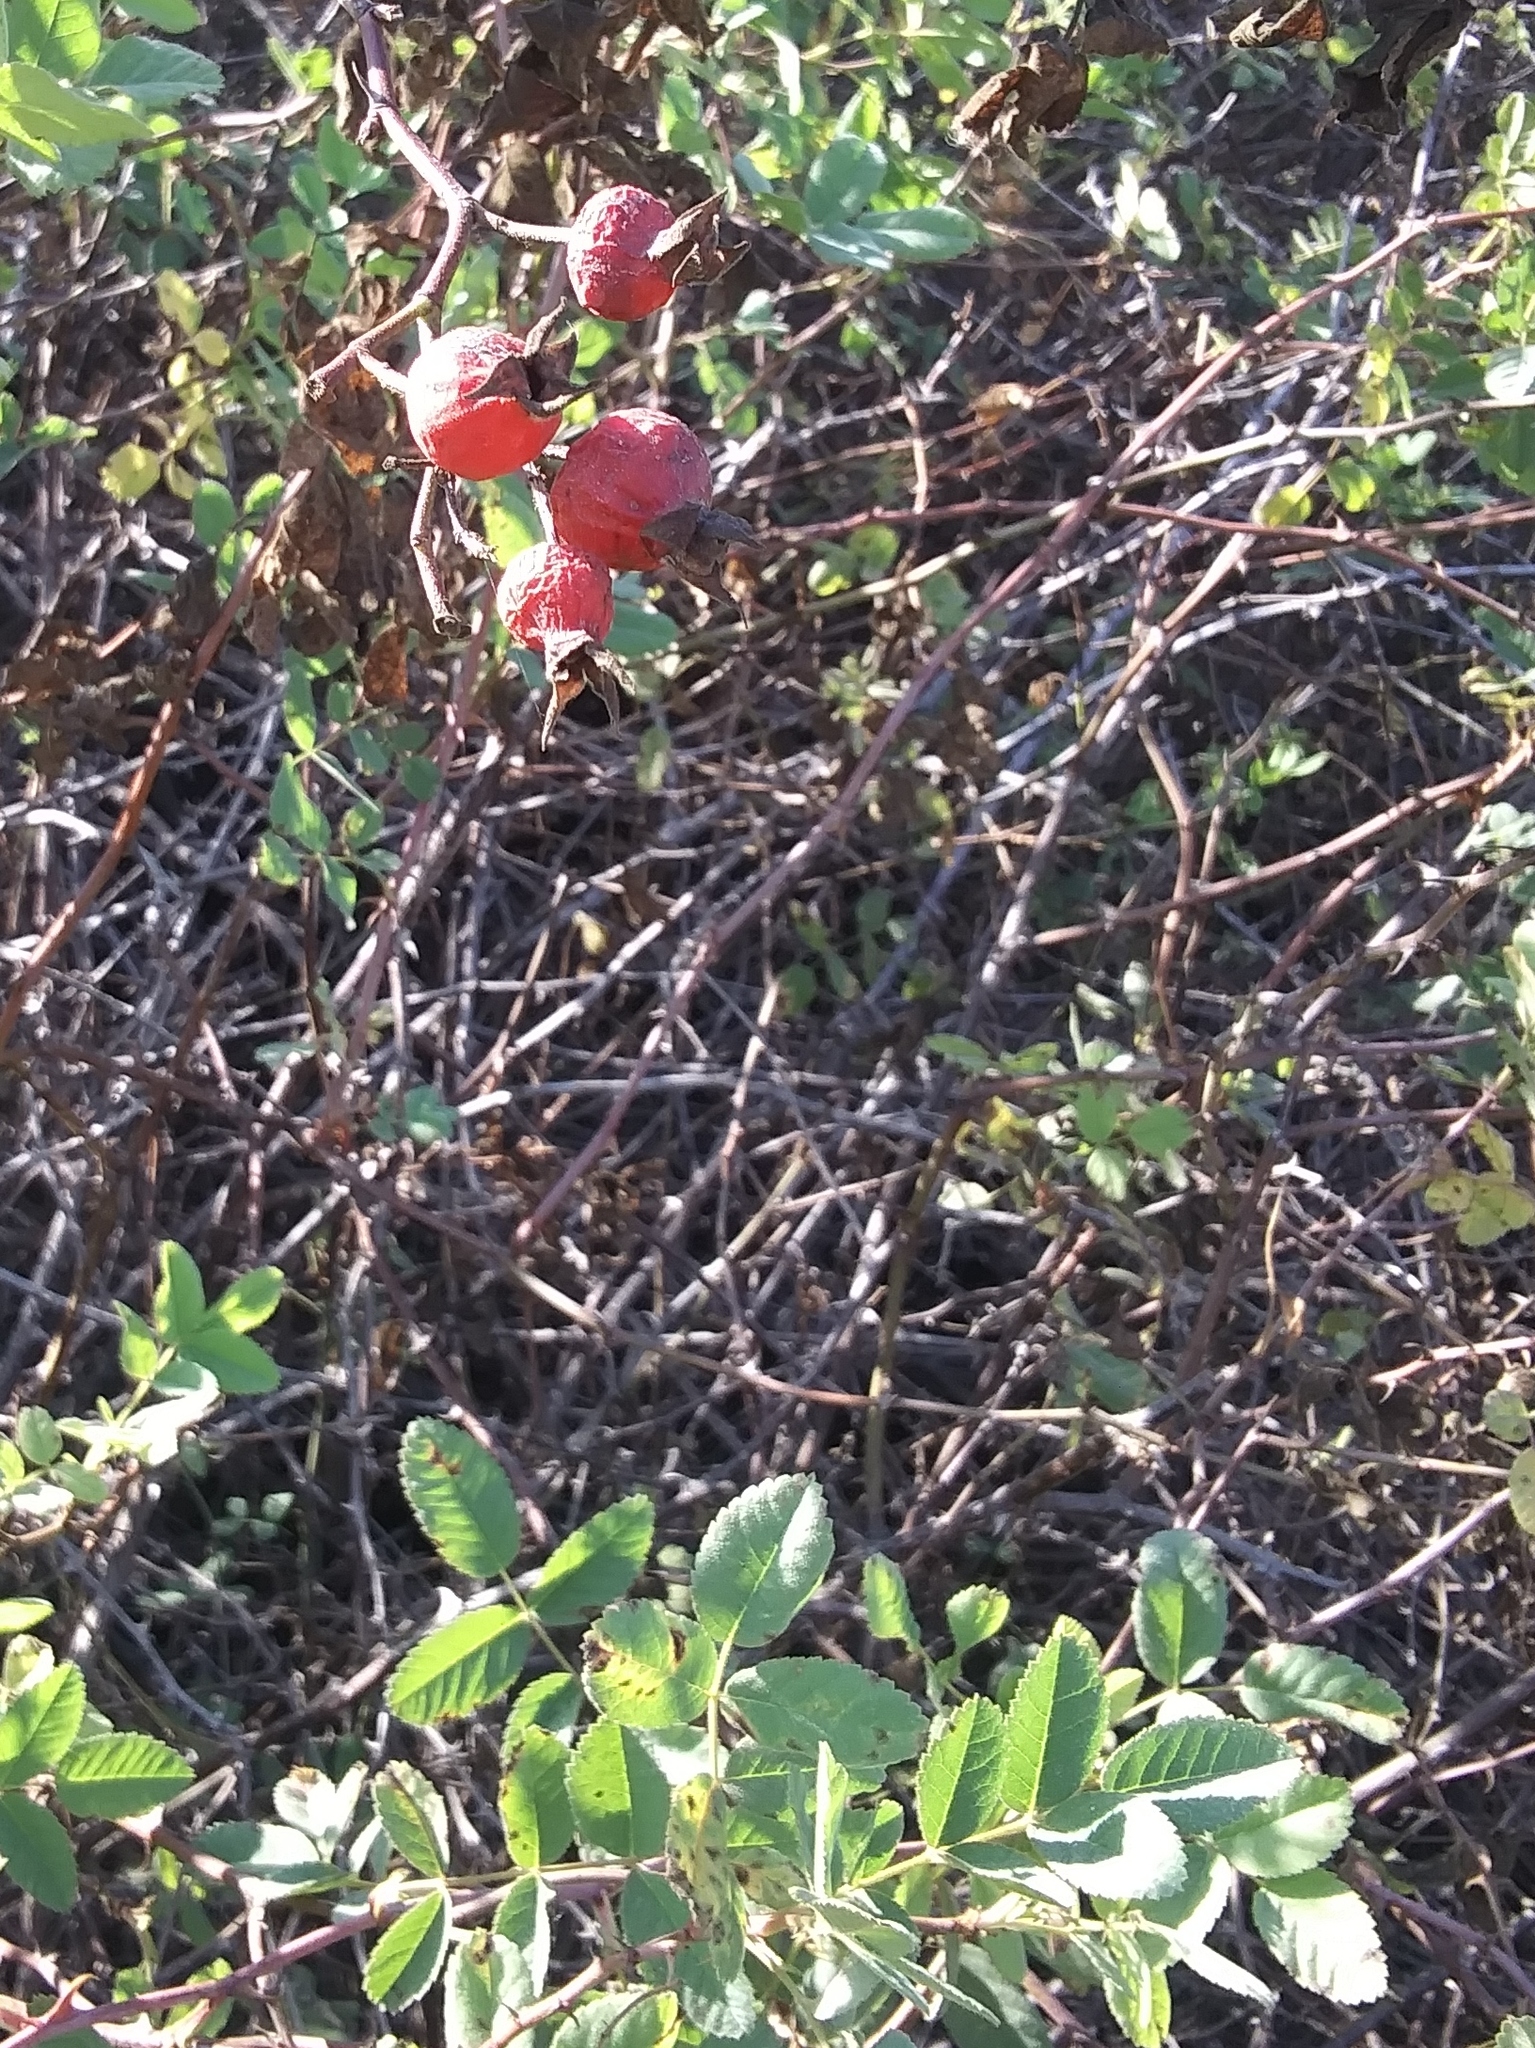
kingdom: Plantae
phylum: Tracheophyta
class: Magnoliopsida
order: Rosales
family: Rosaceae
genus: Rosa
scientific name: Rosa californica
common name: California rose
